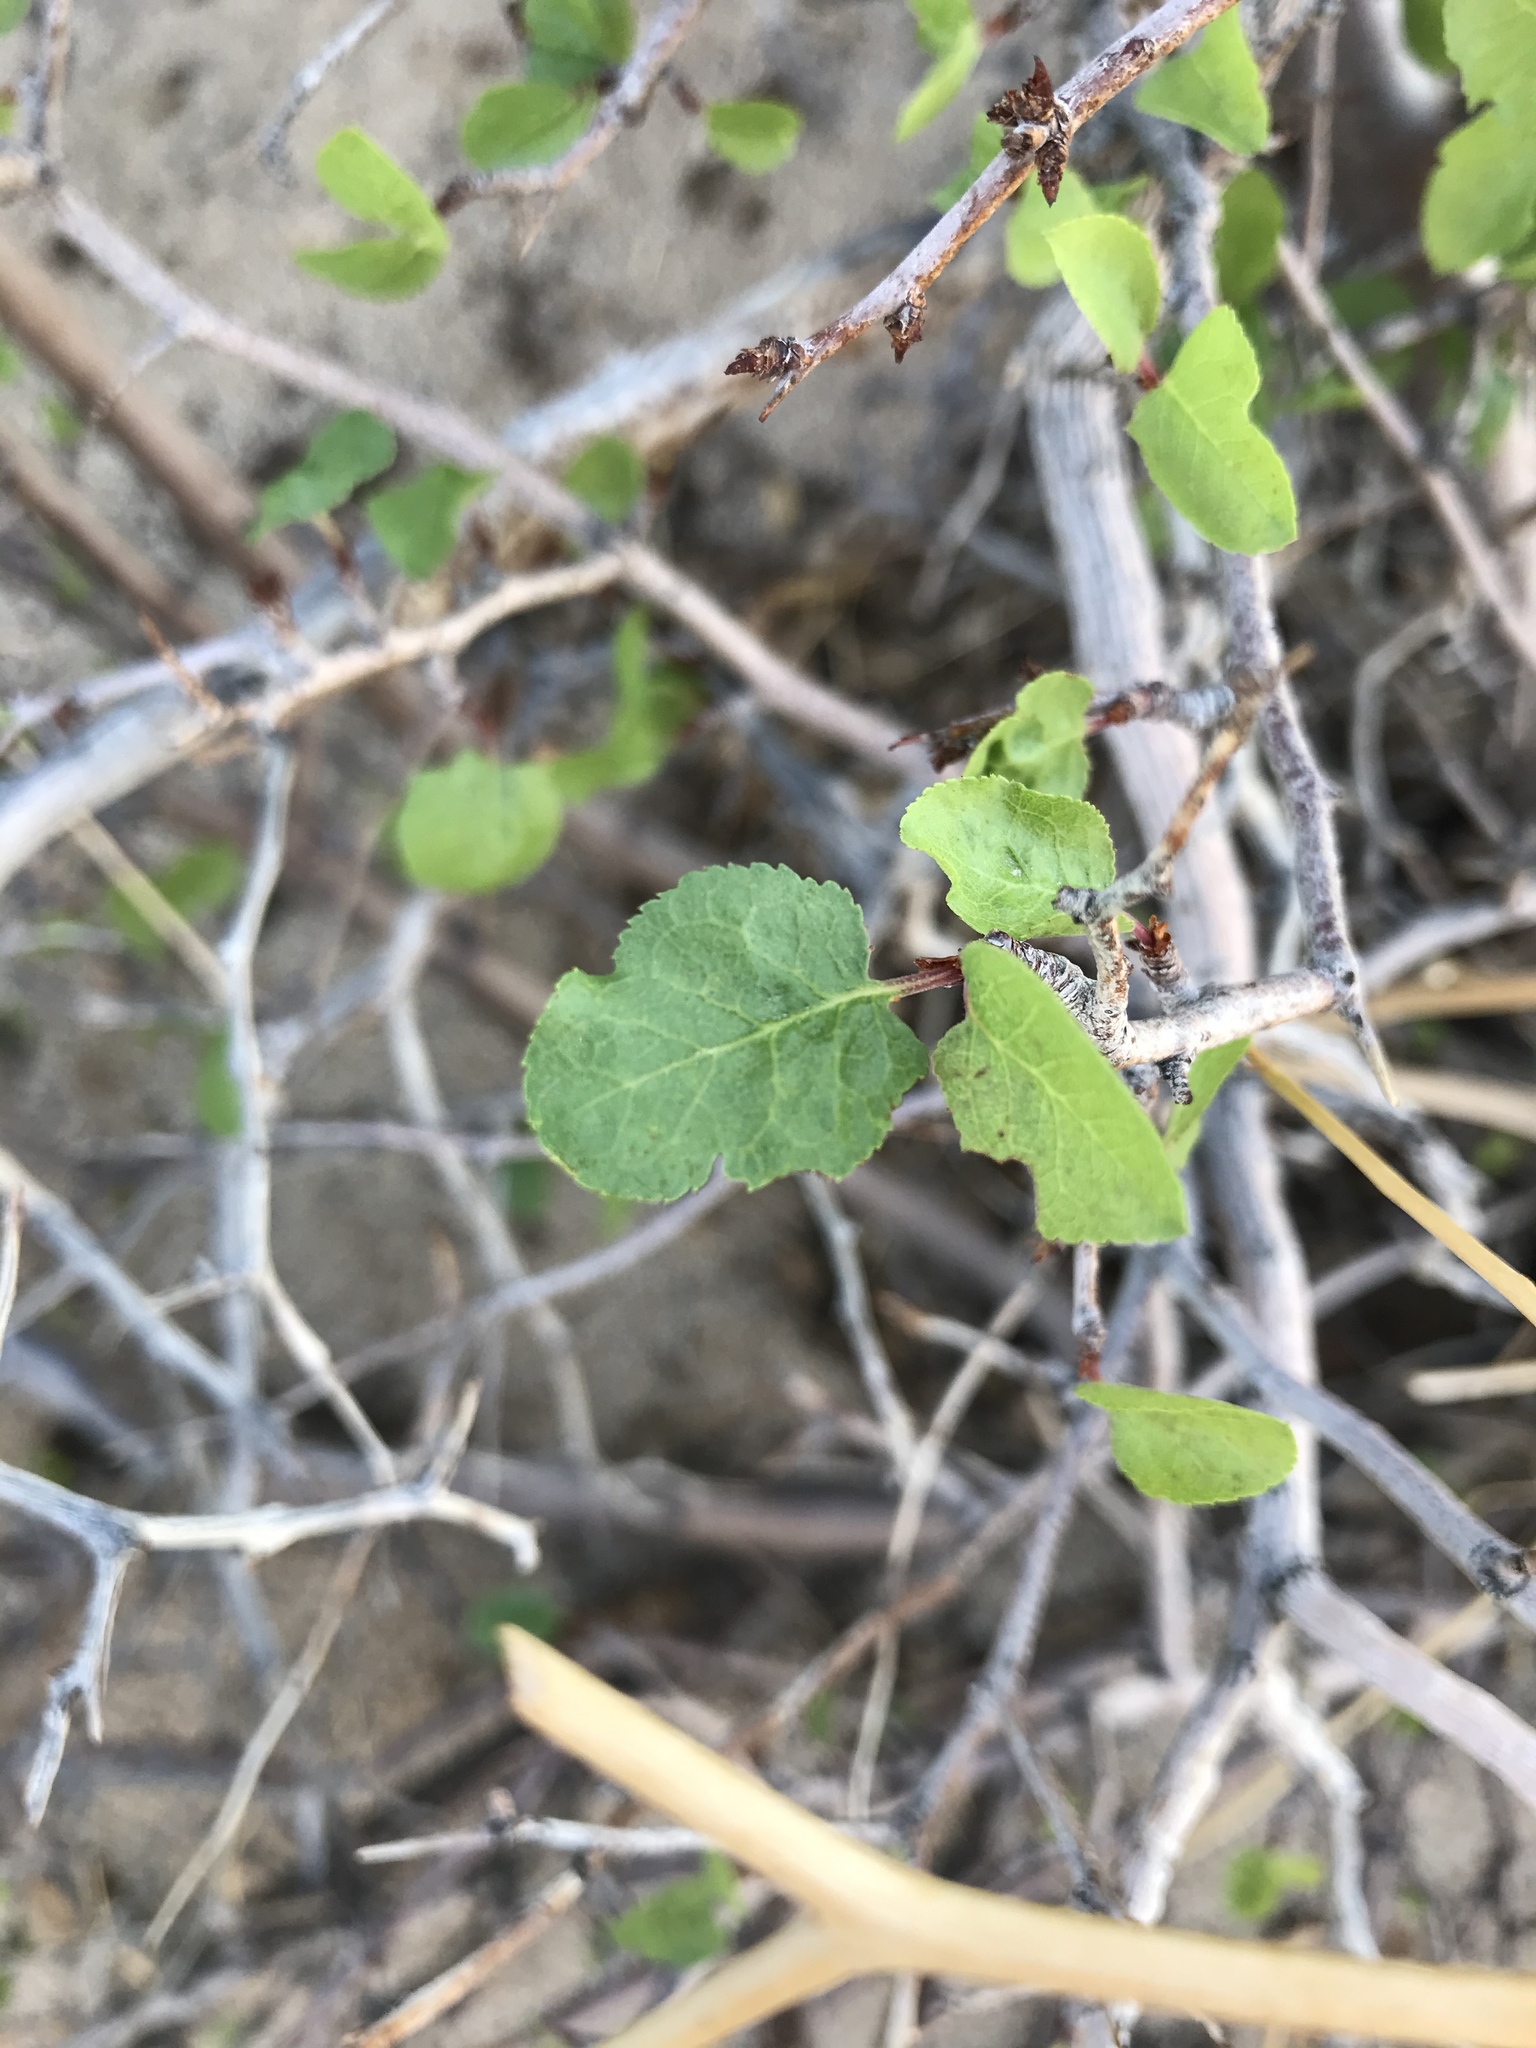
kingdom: Plantae
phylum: Tracheophyta
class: Magnoliopsida
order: Rosales
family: Rosaceae
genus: Prunus
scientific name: Prunus fremontii
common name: Desert apricot
